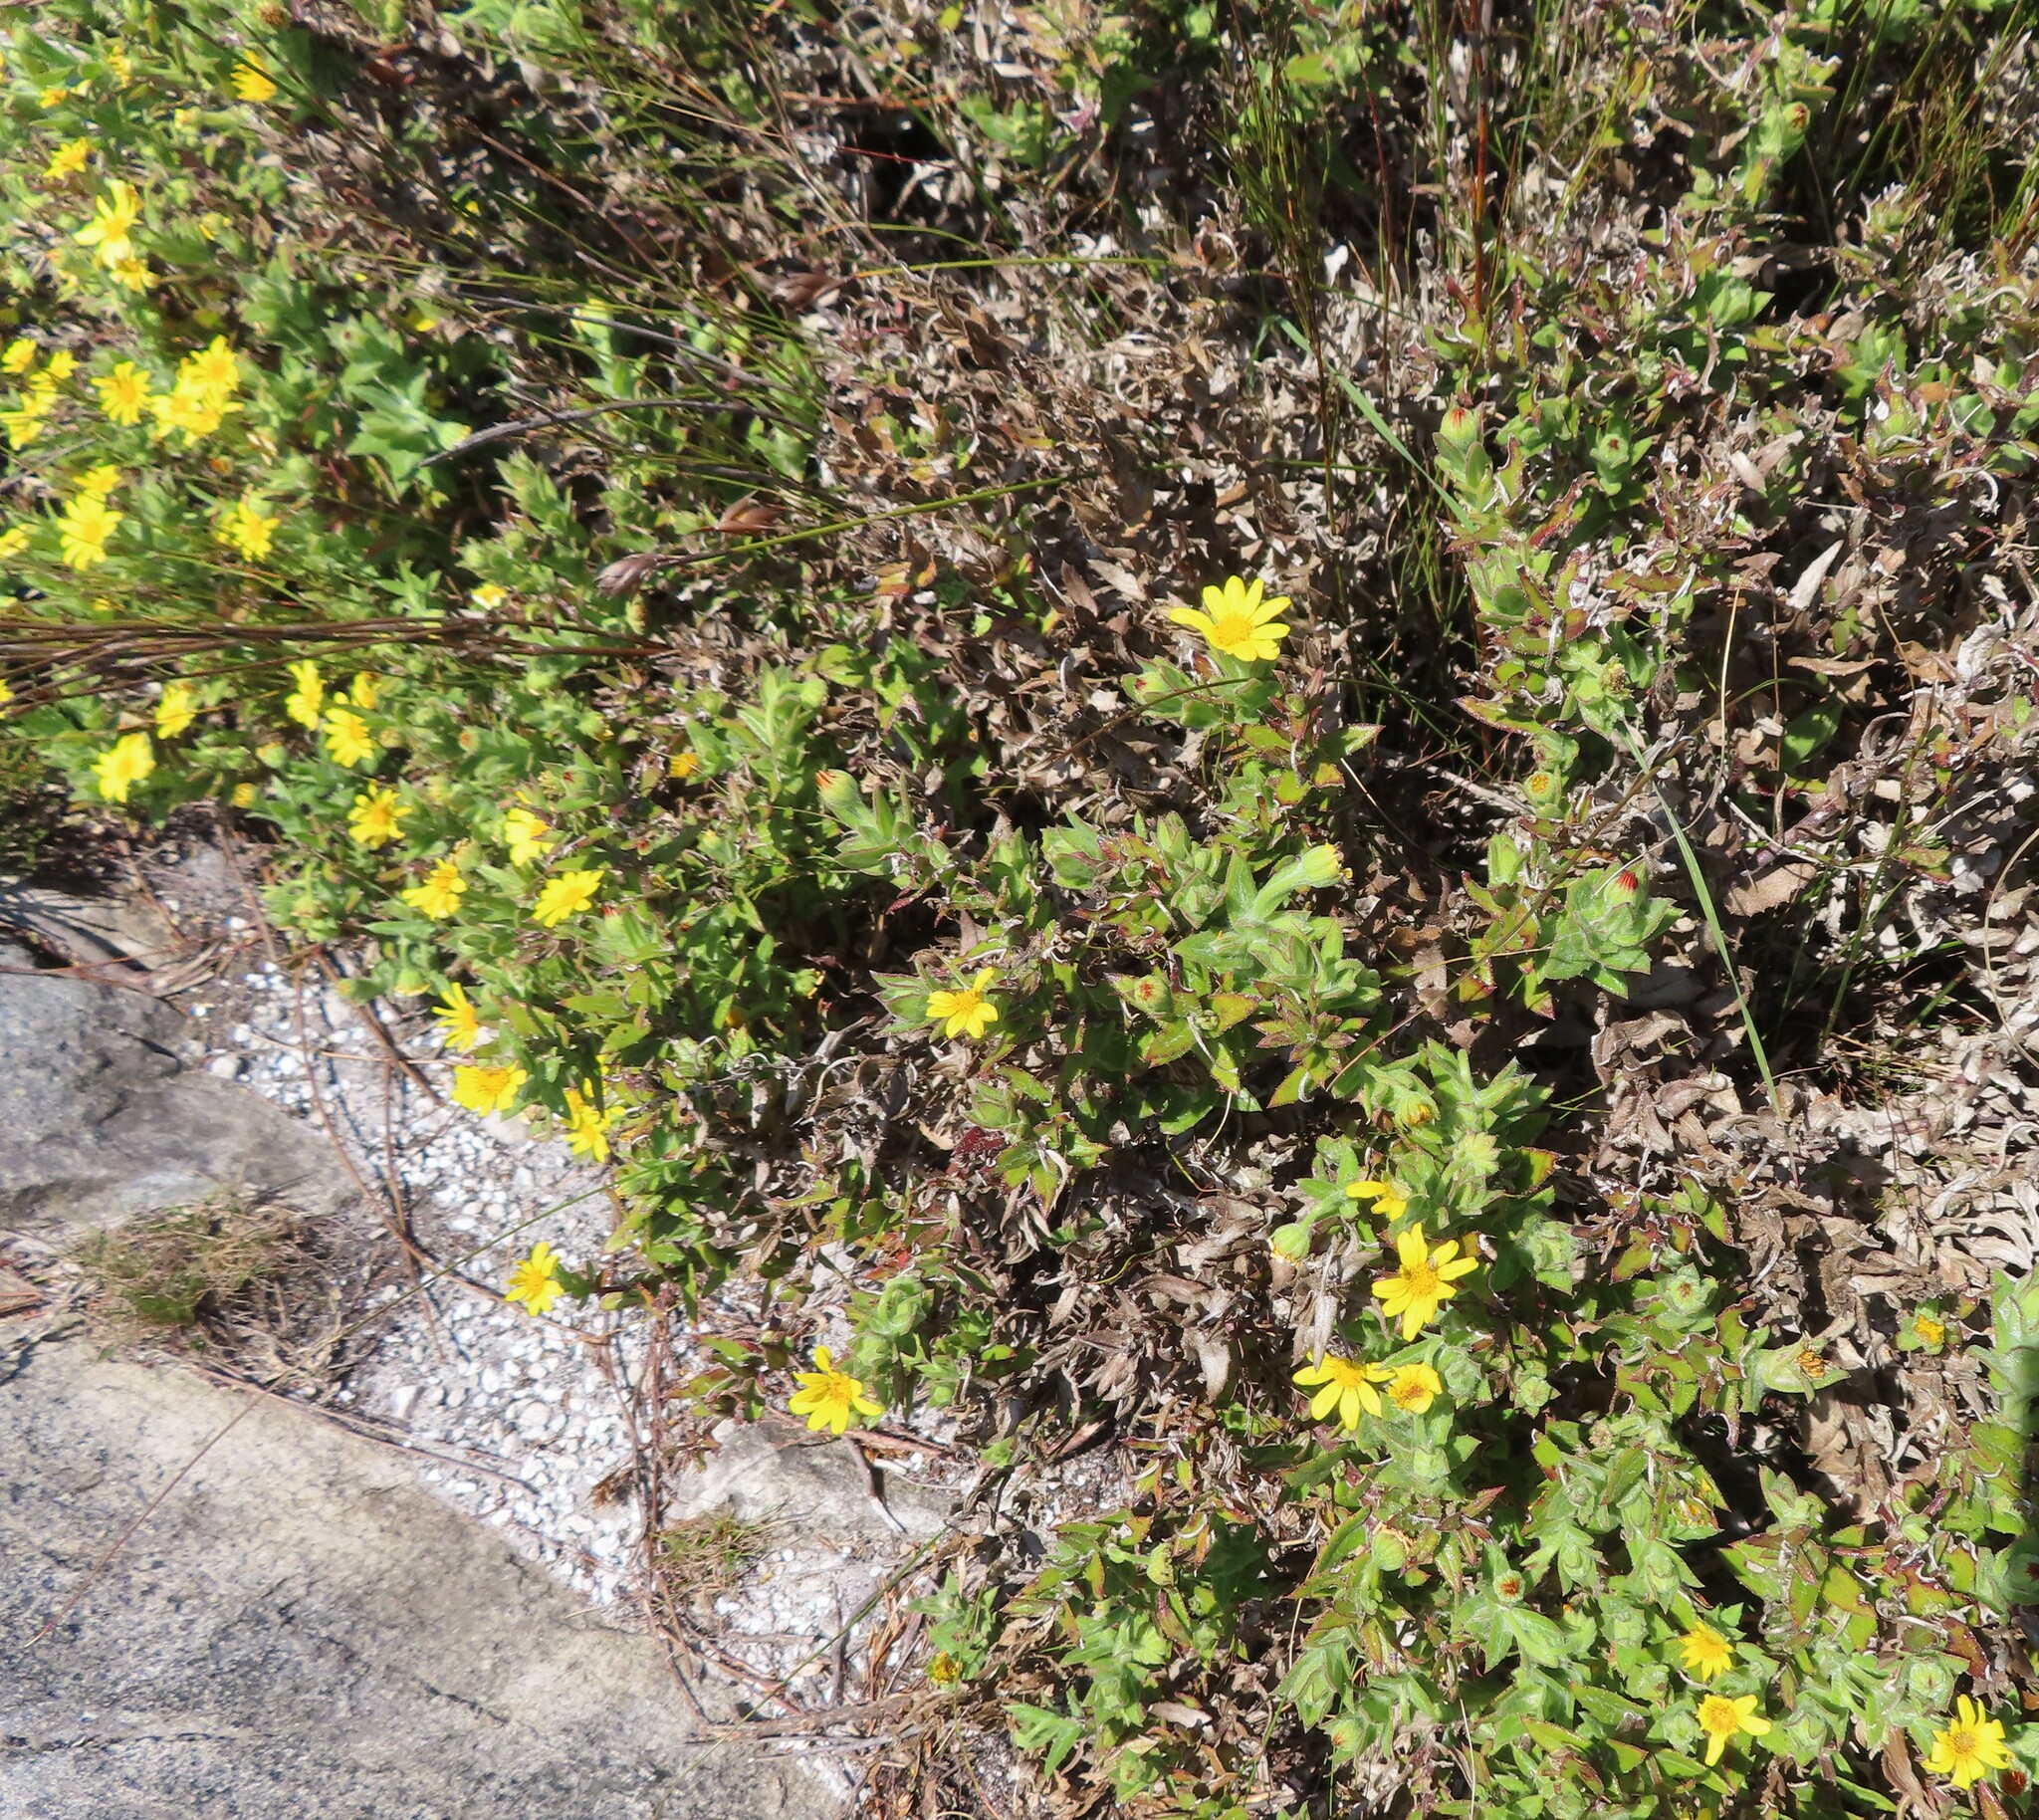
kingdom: Plantae
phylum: Tracheophyta
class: Magnoliopsida
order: Asterales
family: Asteraceae
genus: Osteospermum
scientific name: Osteospermum ilicifolium
